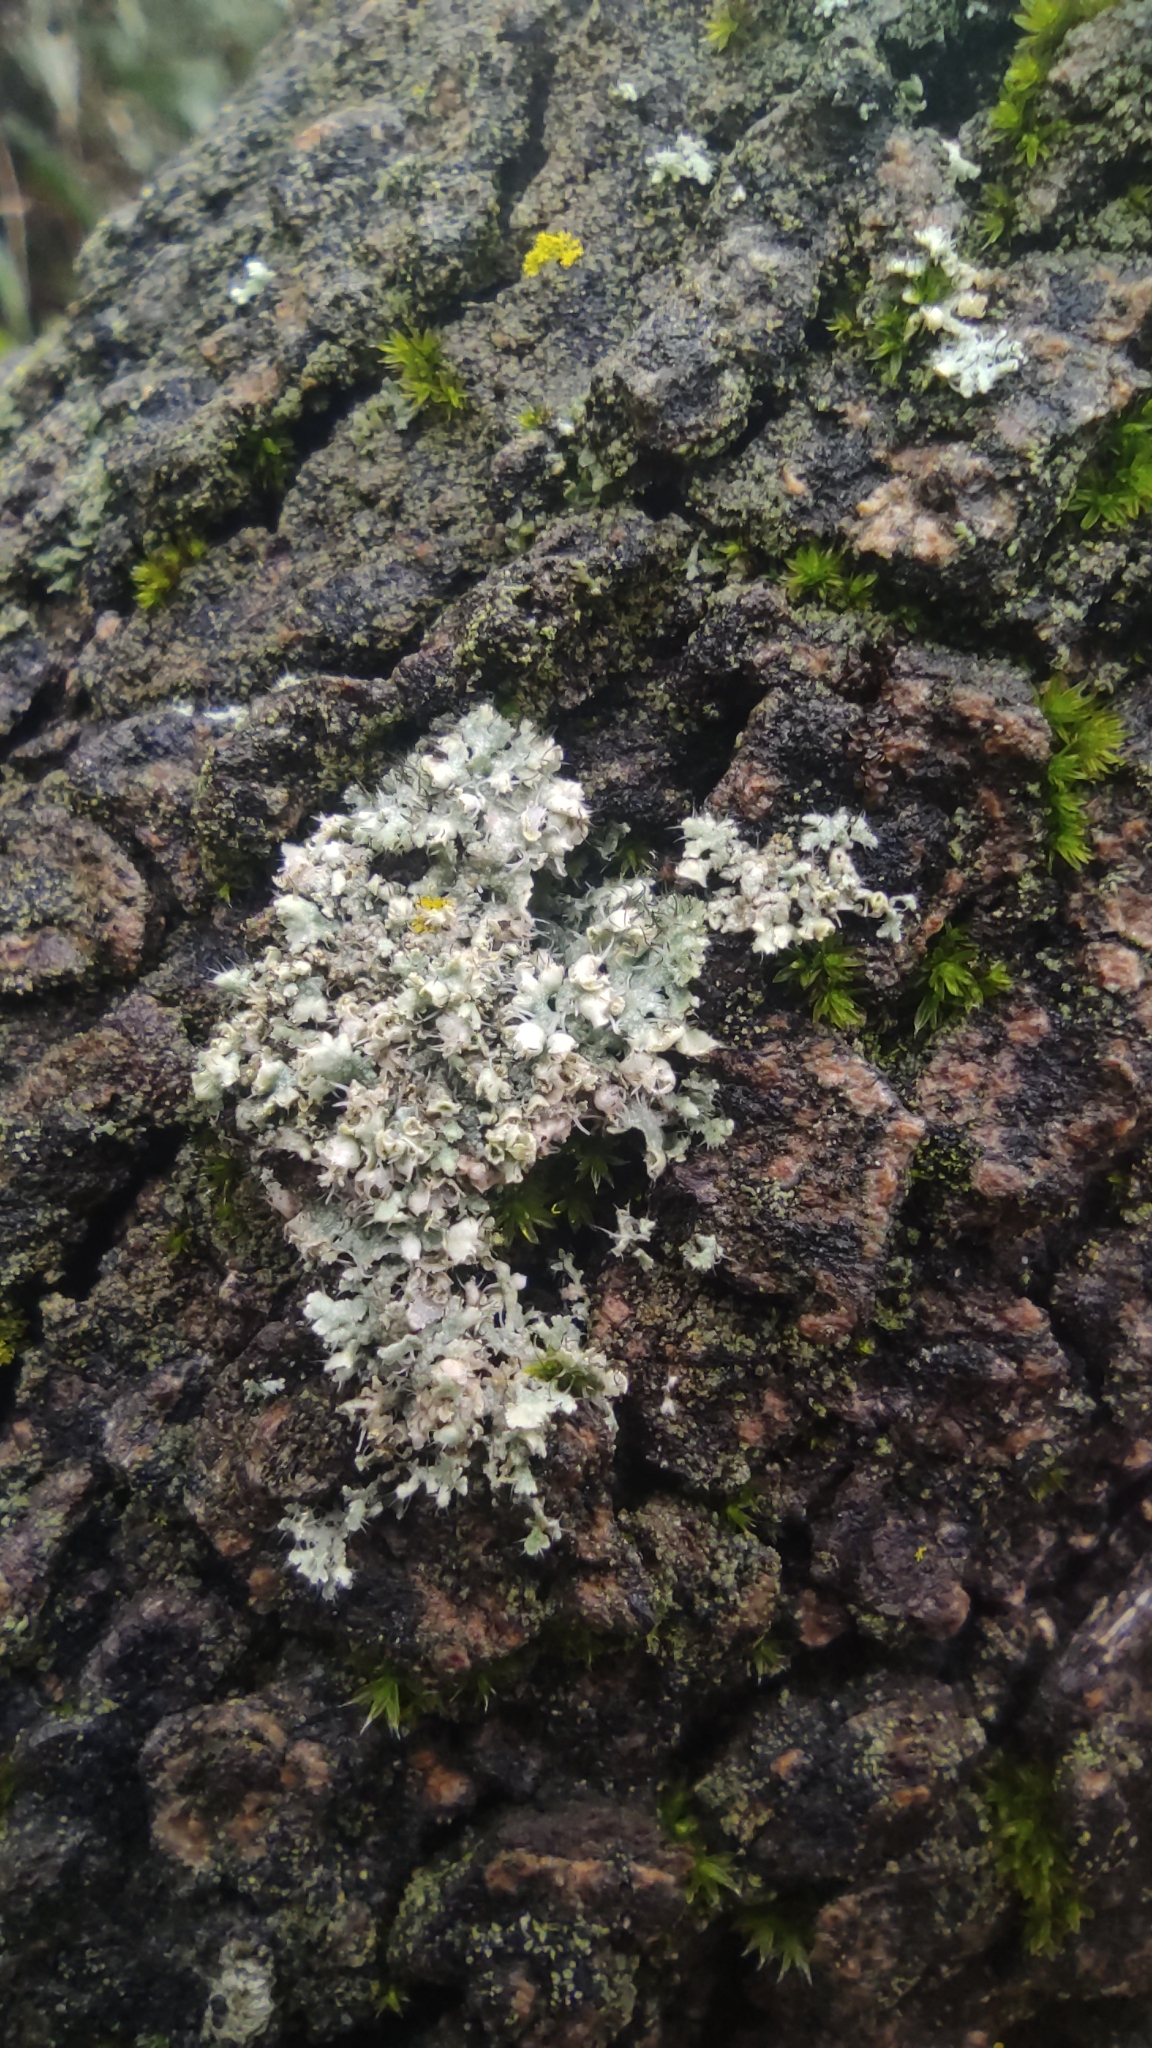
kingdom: Fungi
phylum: Ascomycota
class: Lecanoromycetes
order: Caliciales
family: Physciaceae
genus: Physcia
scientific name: Physcia adscendens
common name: Hooded rosette lichen
